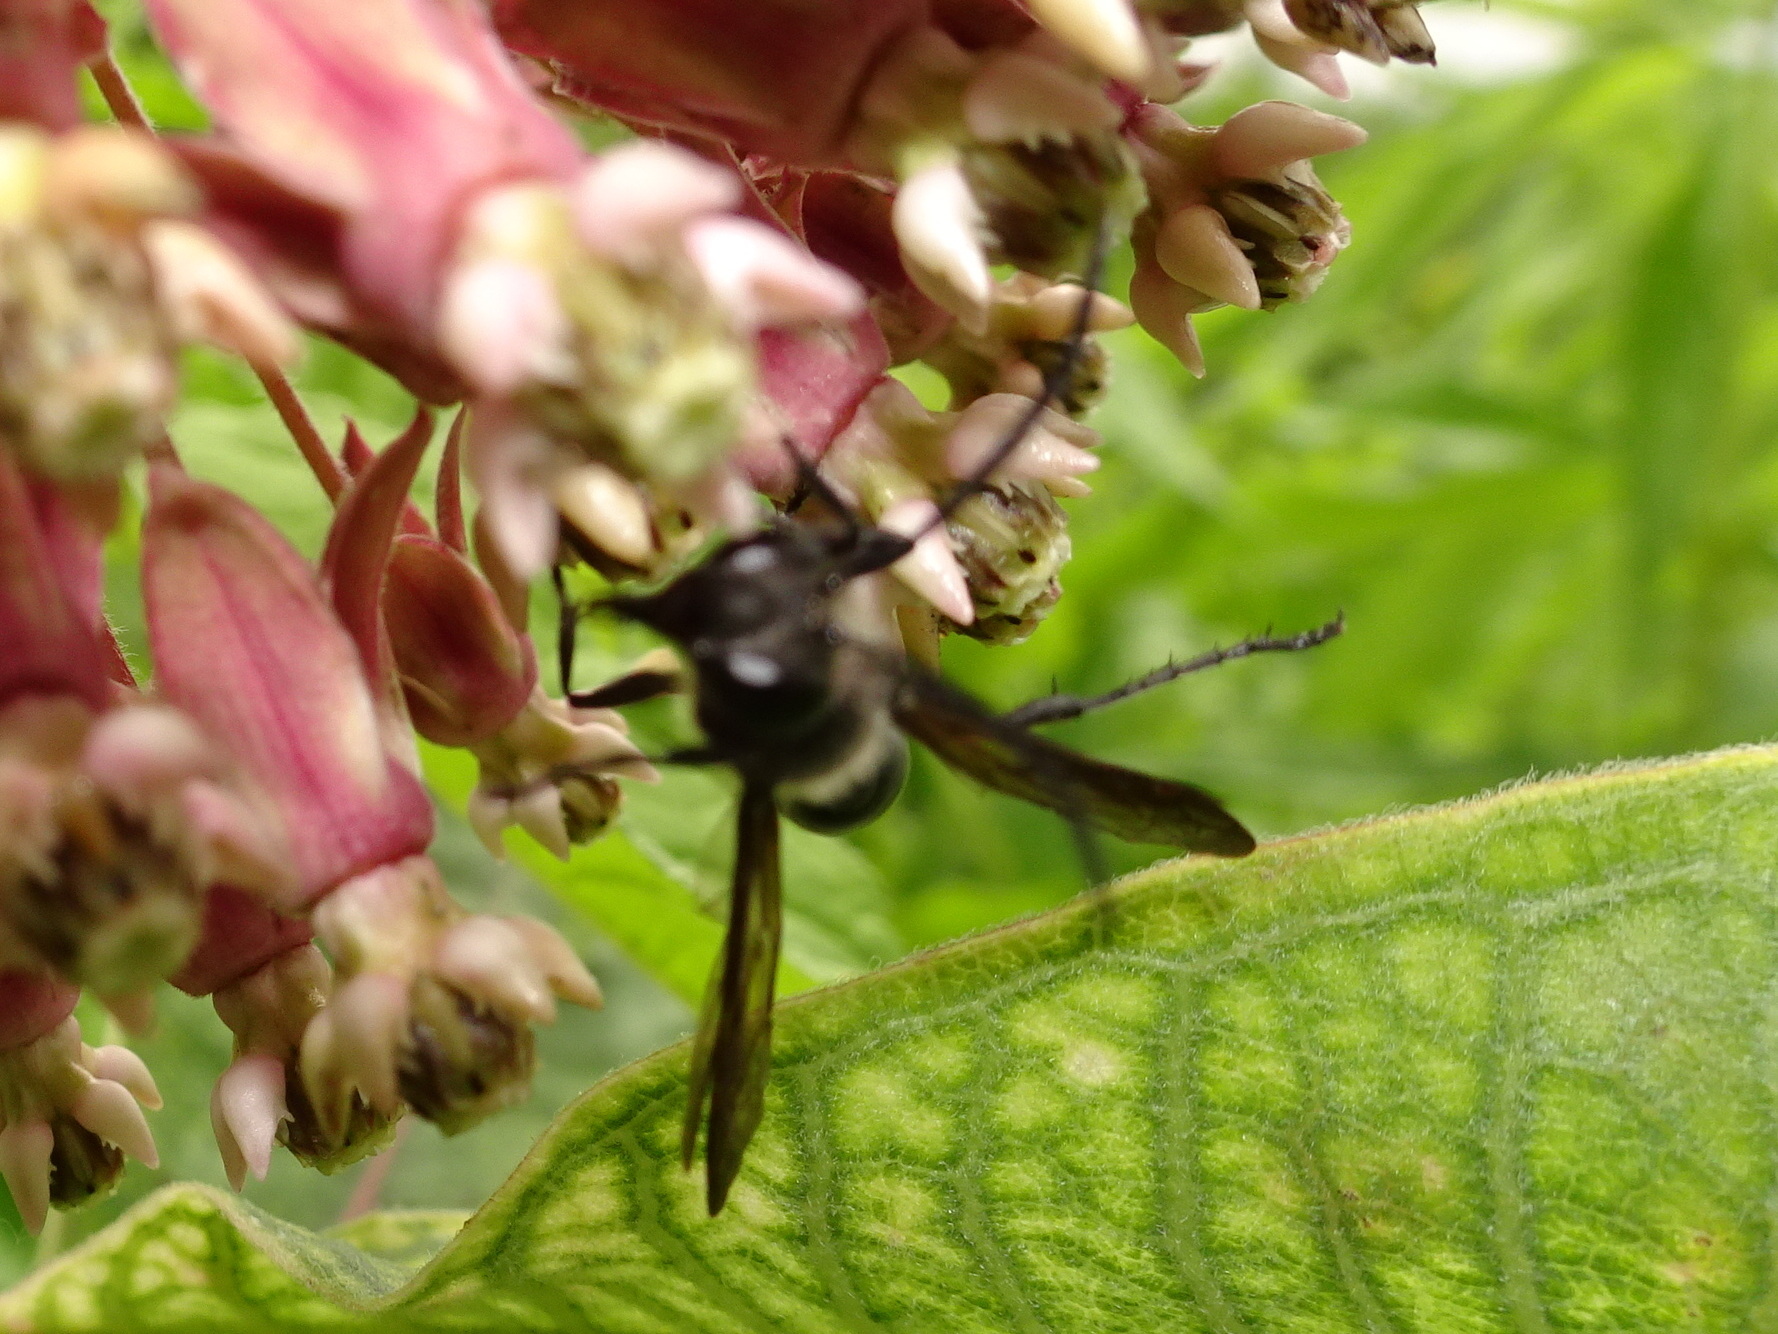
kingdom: Animalia
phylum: Arthropoda
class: Insecta
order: Hymenoptera
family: Sphecidae
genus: Isodontia
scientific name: Isodontia mexicana
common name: Mud dauber
